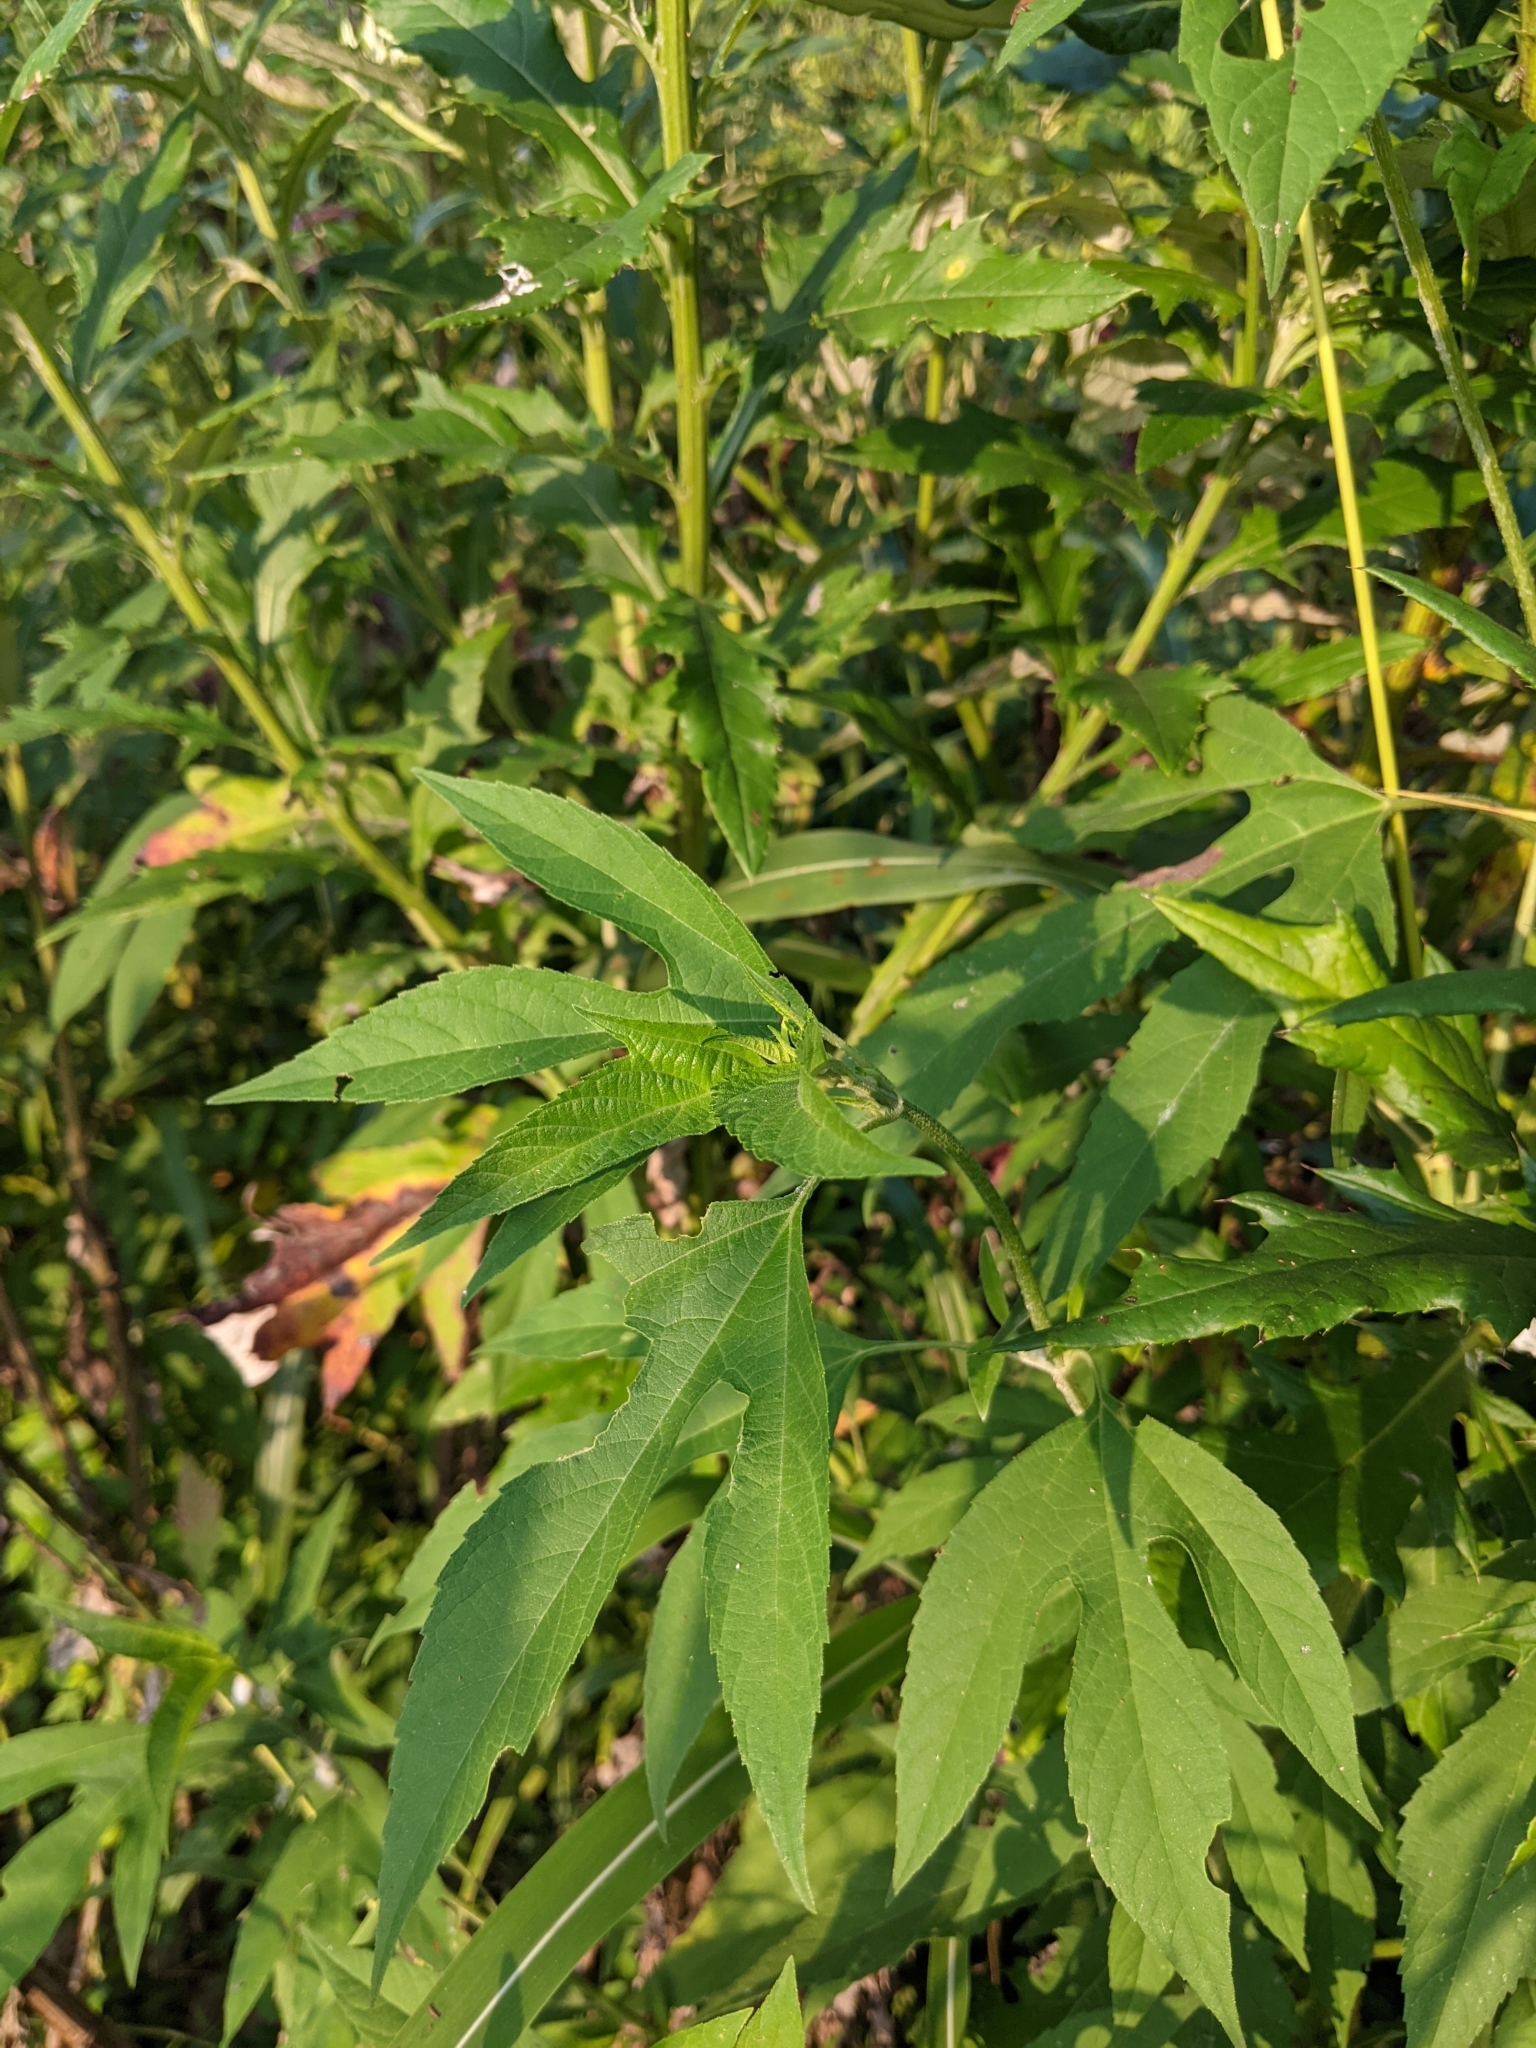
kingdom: Plantae
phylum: Tracheophyta
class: Magnoliopsida
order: Asterales
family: Asteraceae
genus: Ambrosia
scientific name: Ambrosia trifida
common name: Giant ragweed
